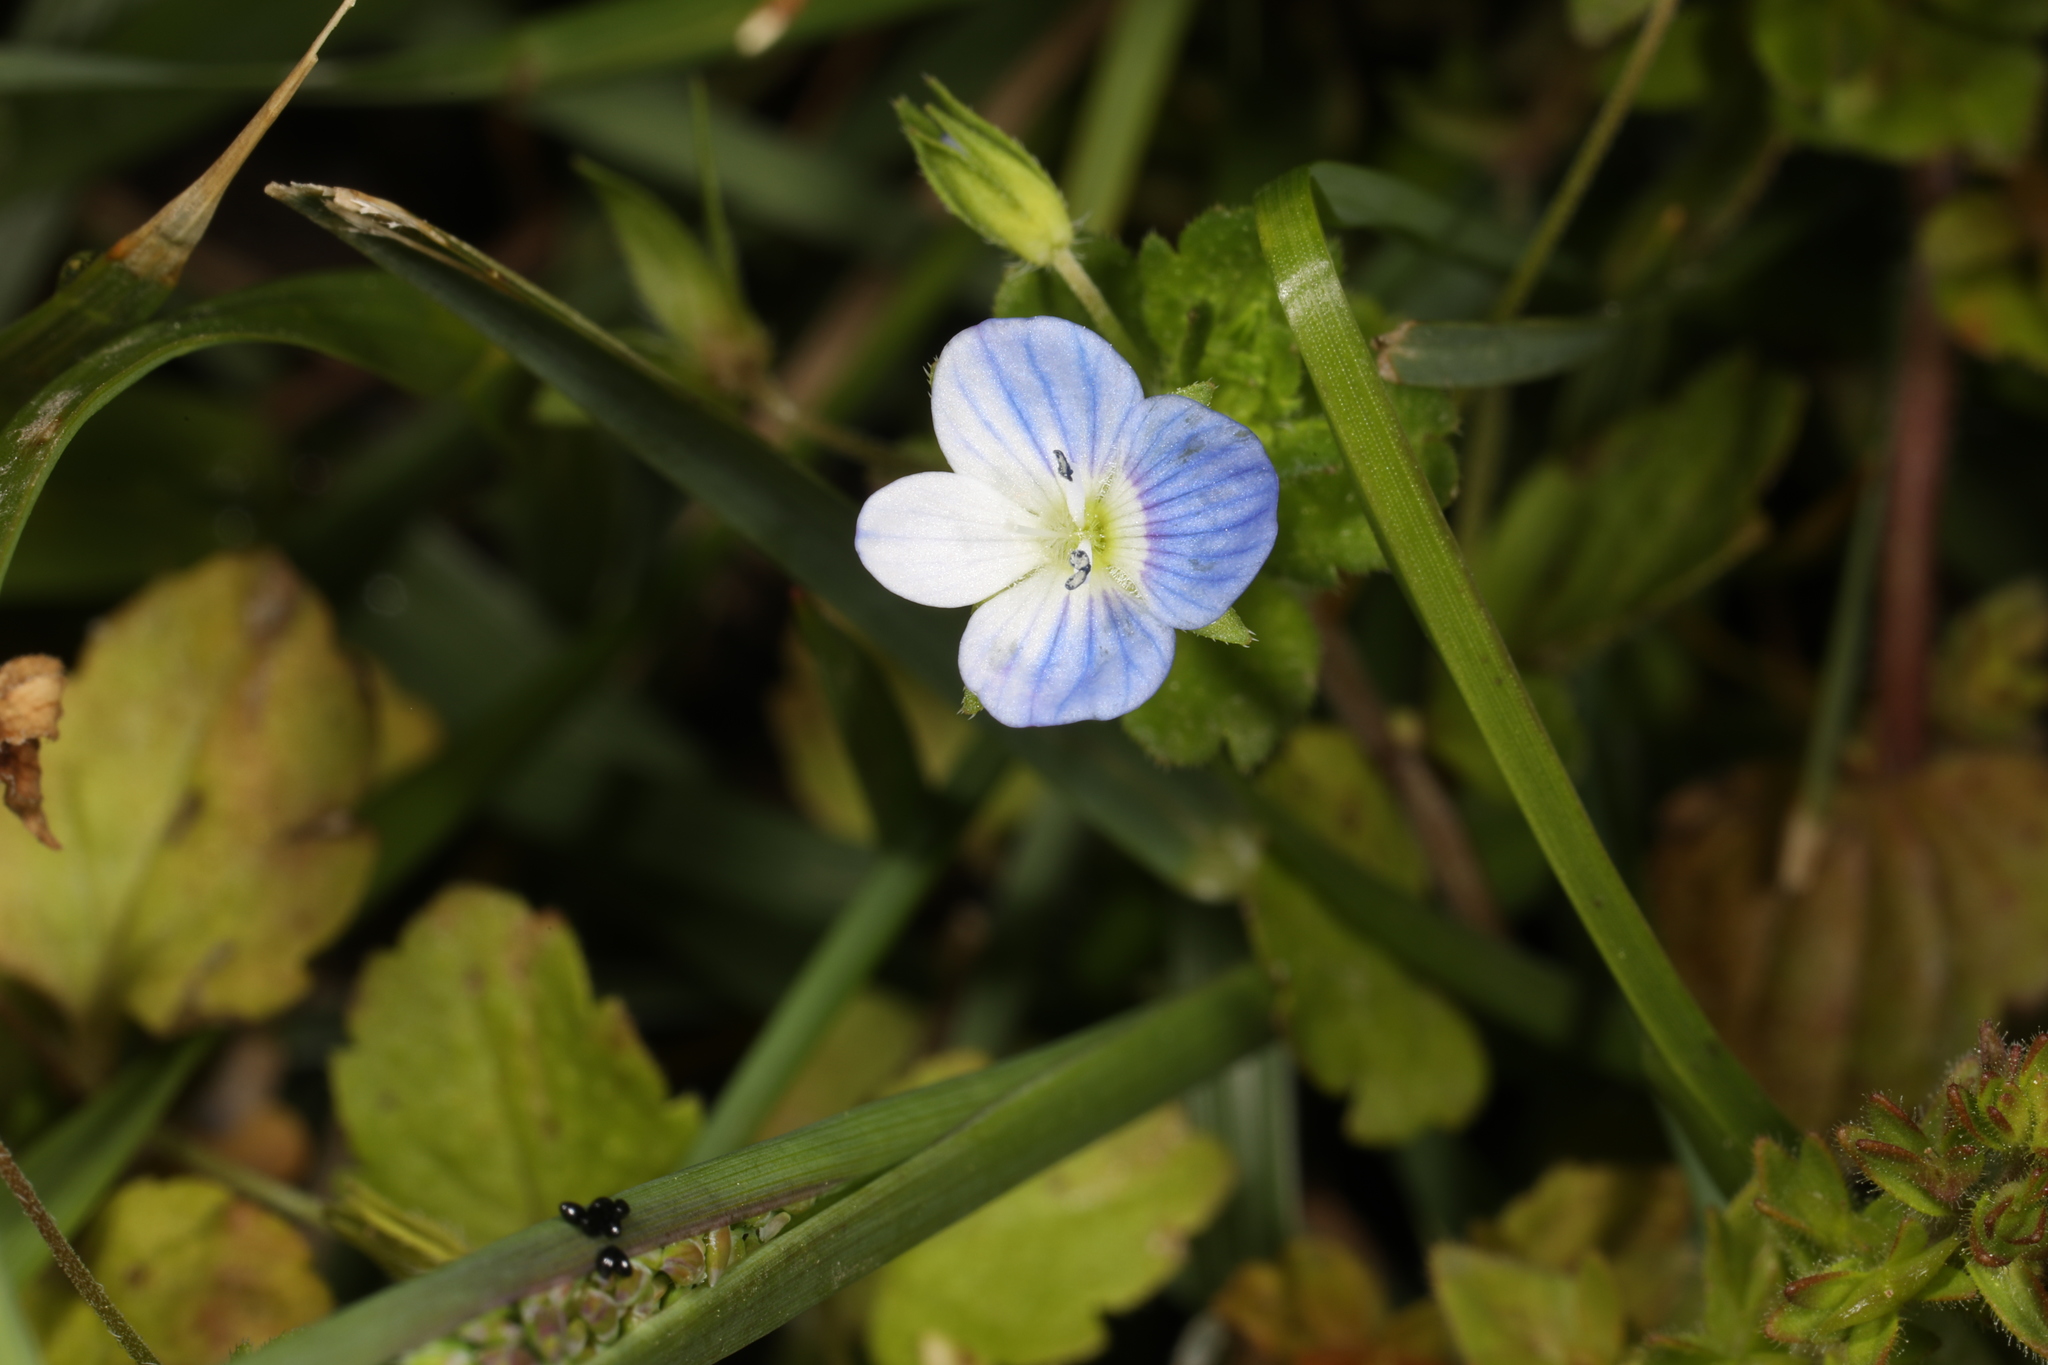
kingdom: Plantae
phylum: Tracheophyta
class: Magnoliopsida
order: Lamiales
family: Plantaginaceae
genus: Veronica
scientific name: Veronica persica
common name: Common field-speedwell
